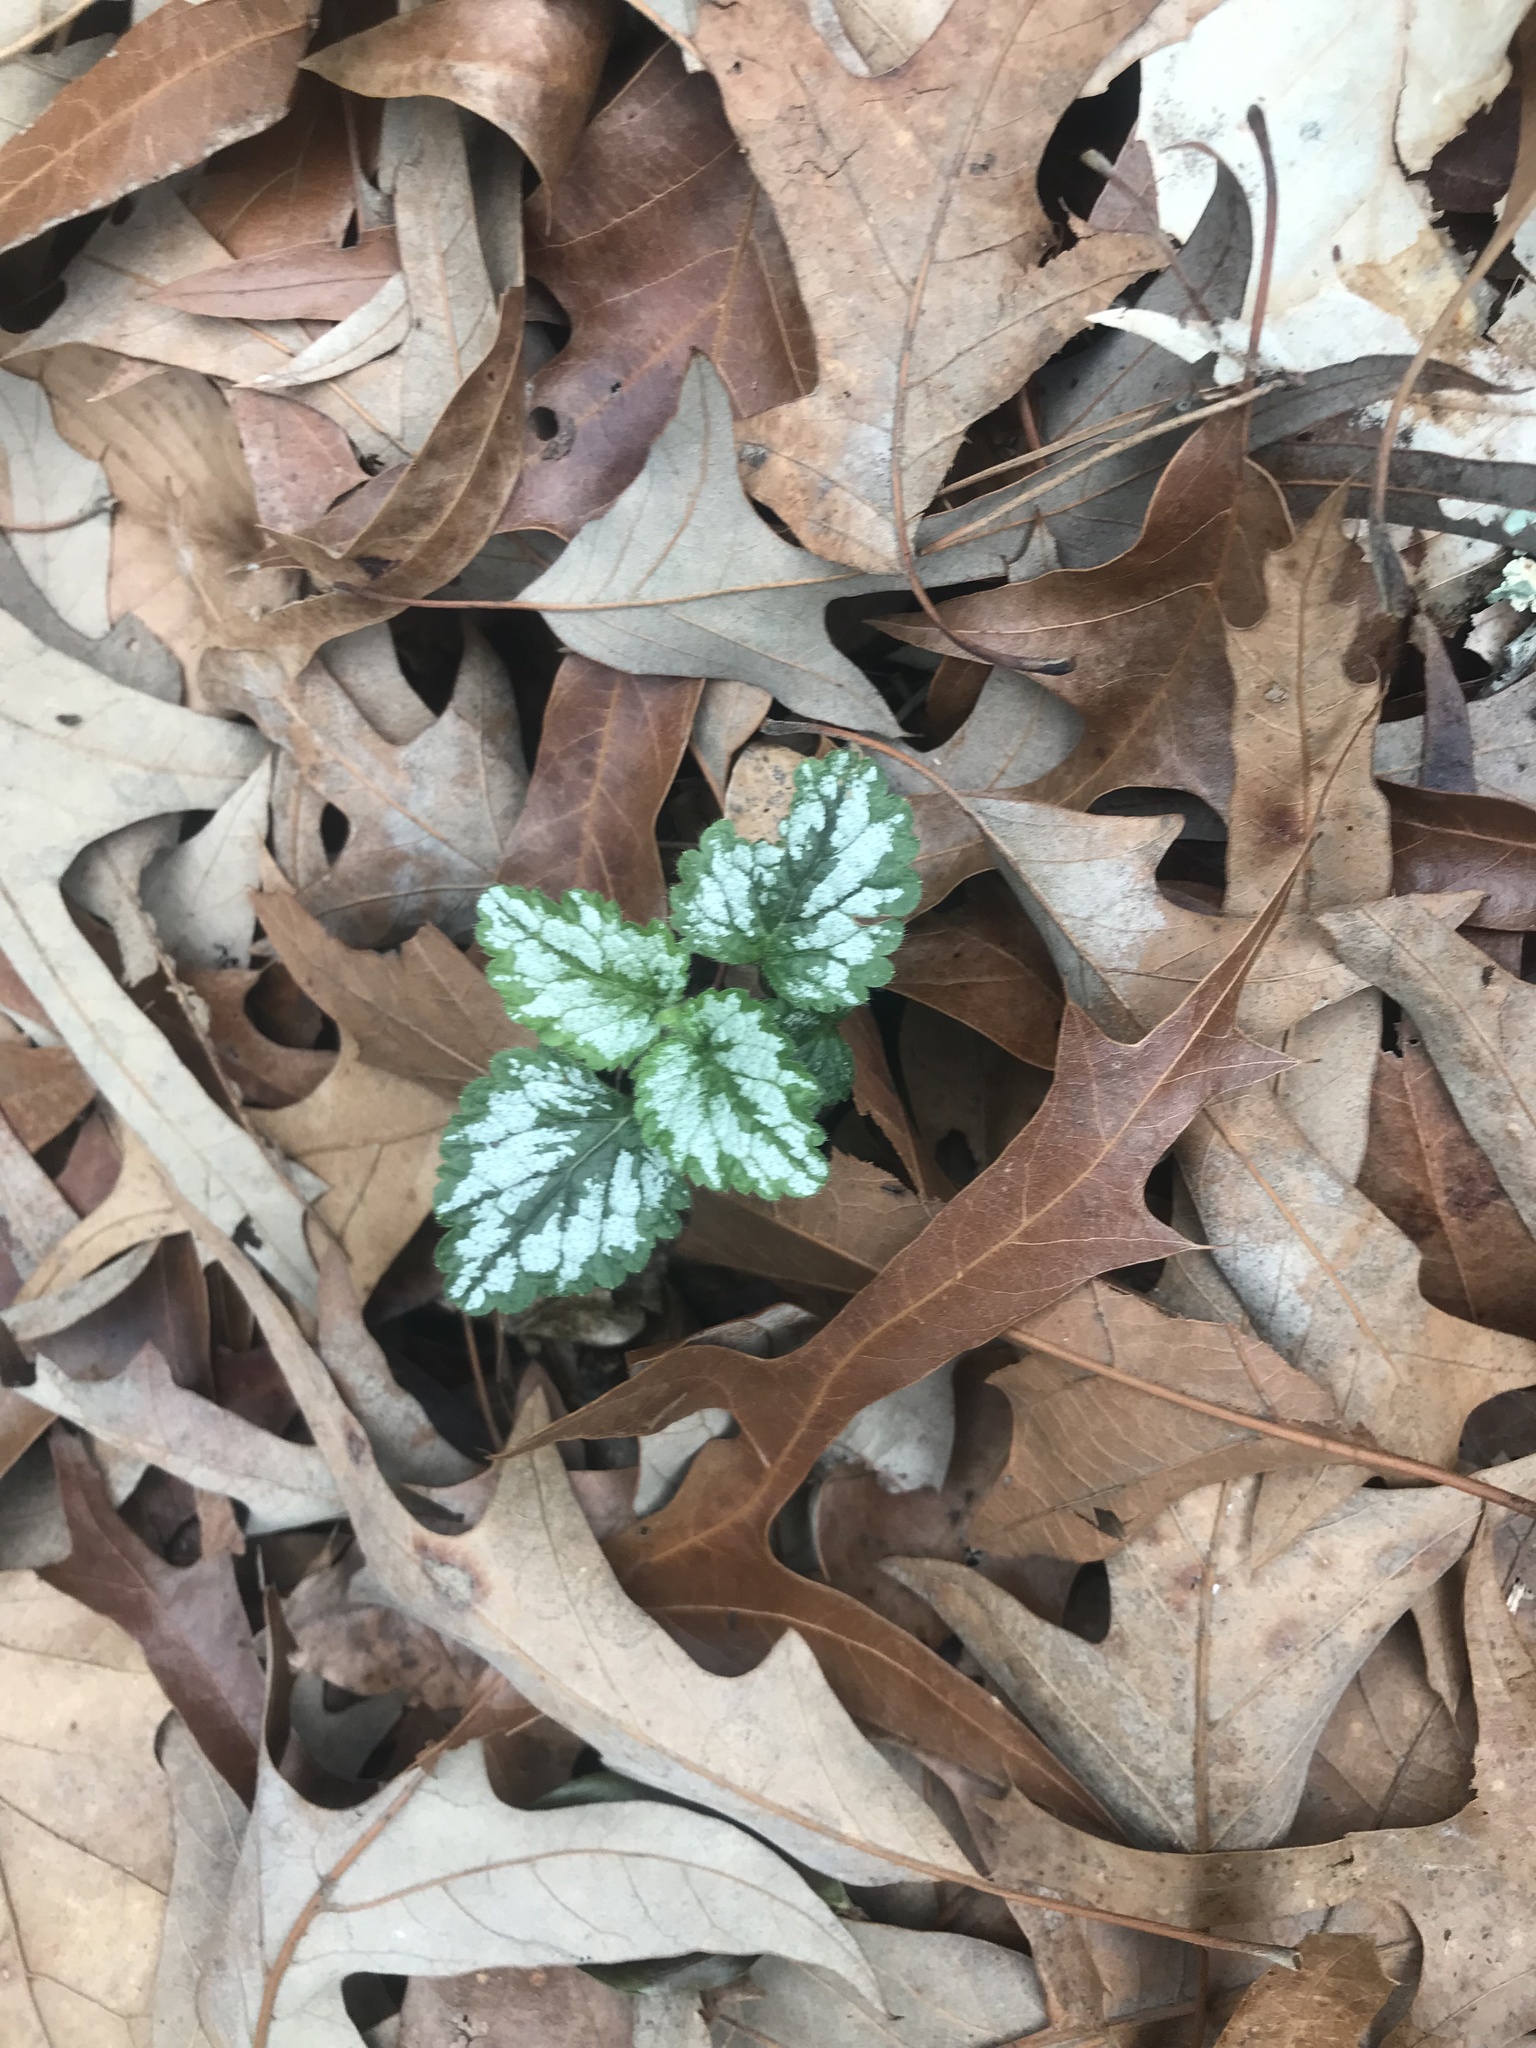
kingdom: Plantae
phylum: Tracheophyta
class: Magnoliopsida
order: Lamiales
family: Lamiaceae
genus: Lamium
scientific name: Lamium galeobdolon
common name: Yellow archangel
